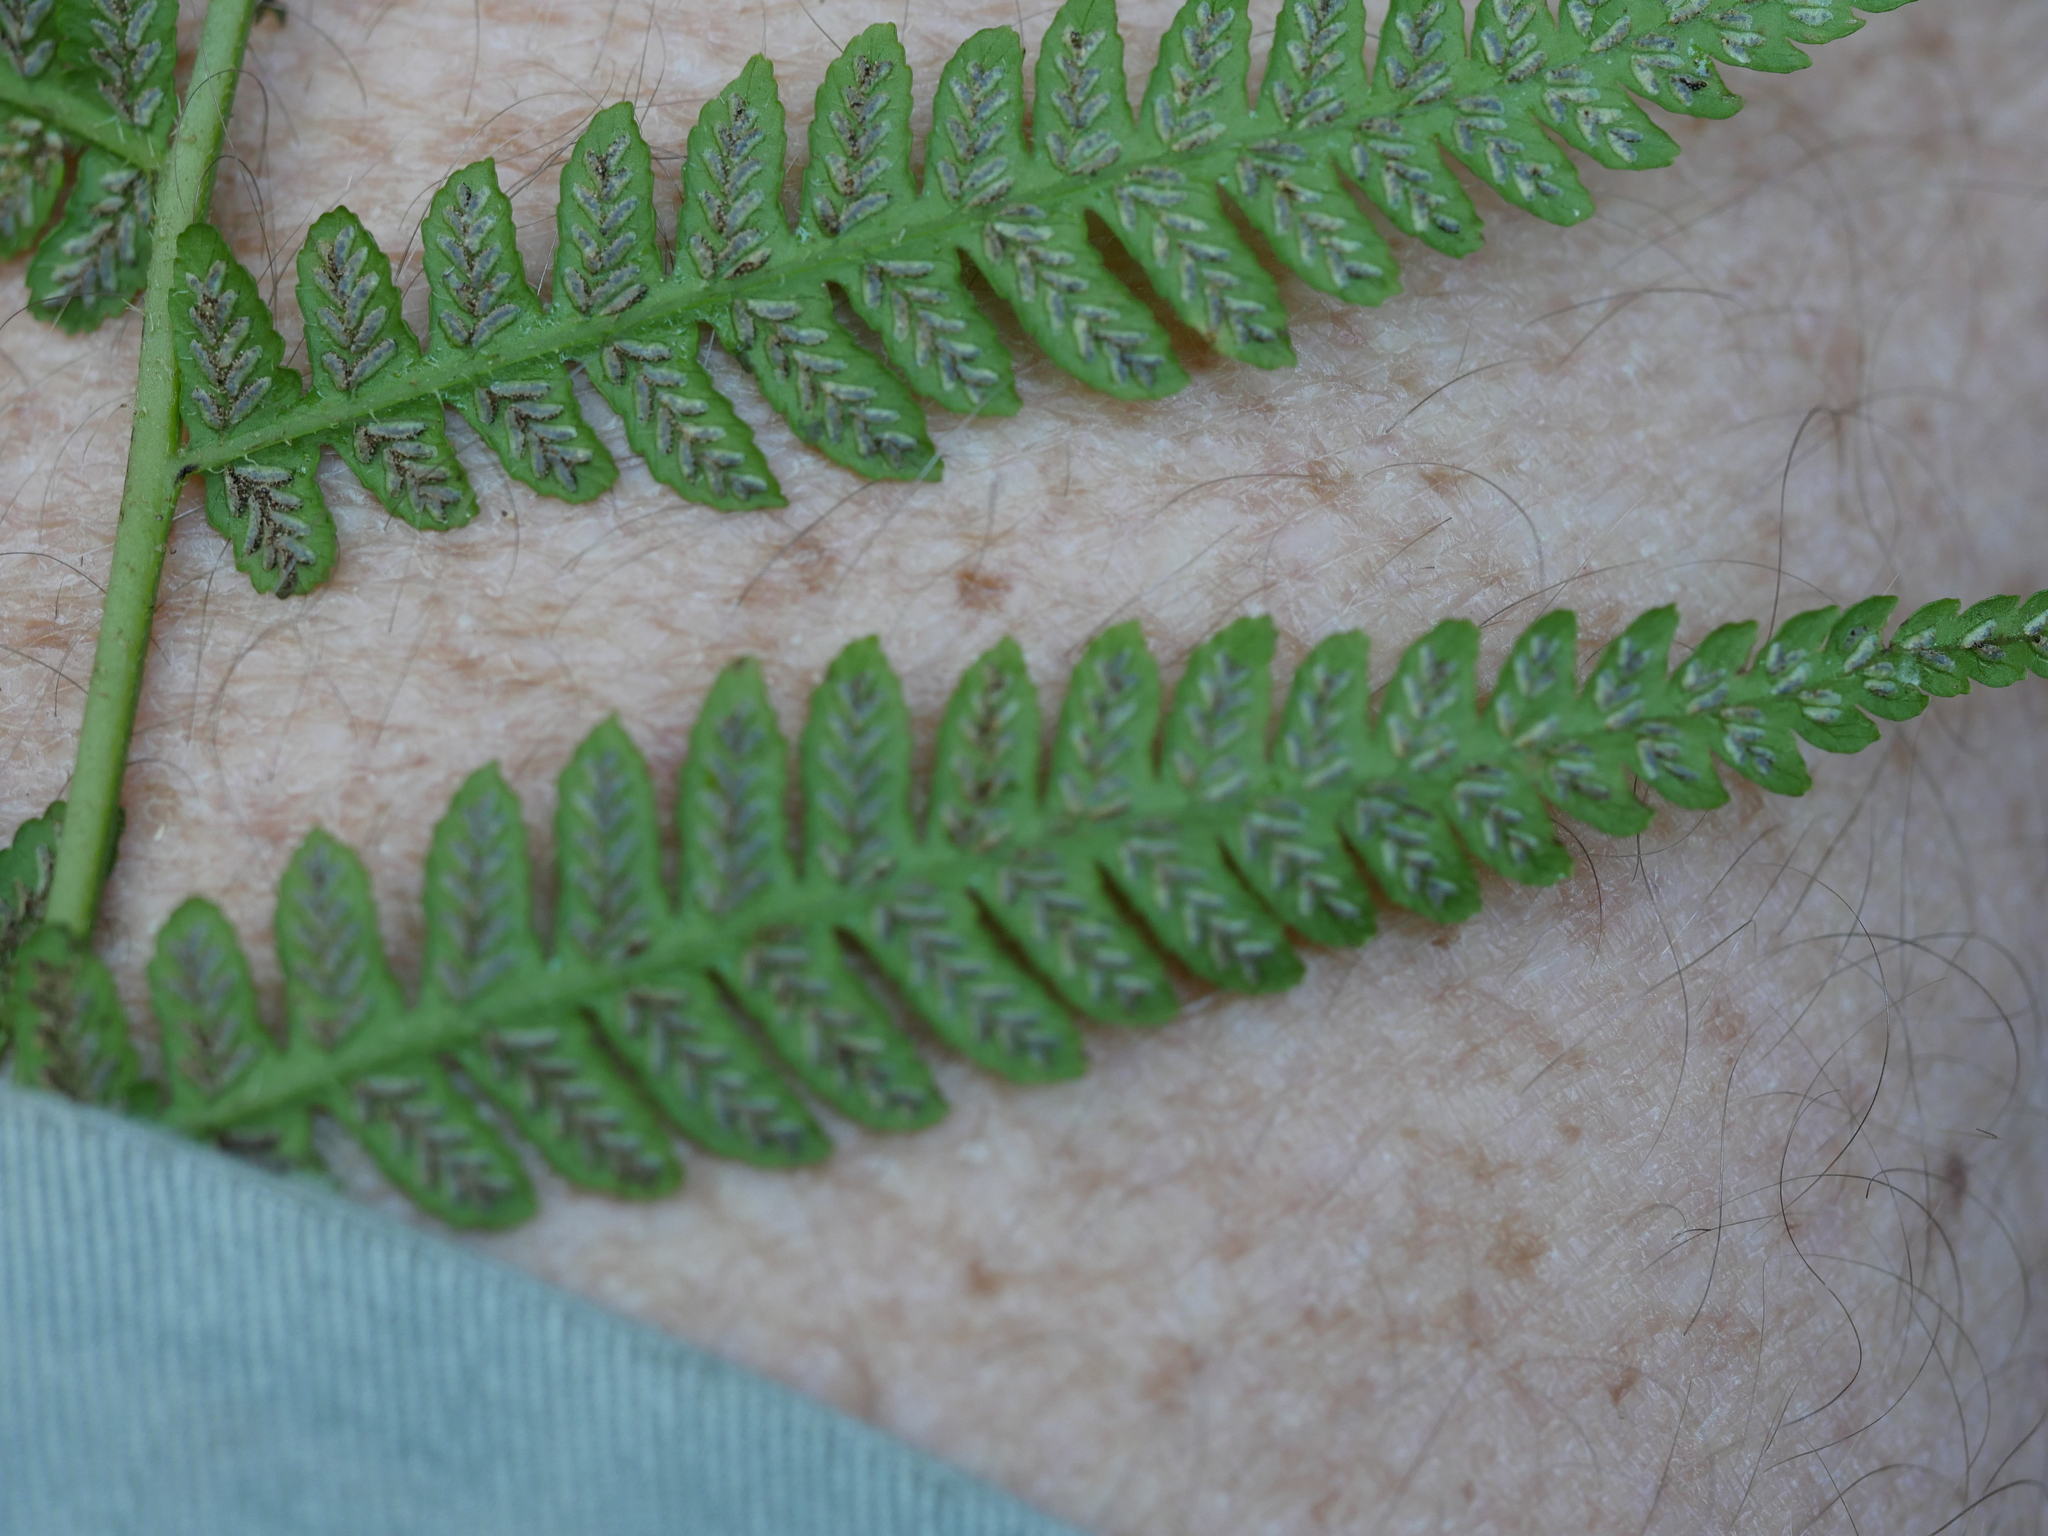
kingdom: Plantae
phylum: Tracheophyta
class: Polypodiopsida
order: Polypodiales
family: Athyriaceae
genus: Diplazium
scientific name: Diplazium congruum
